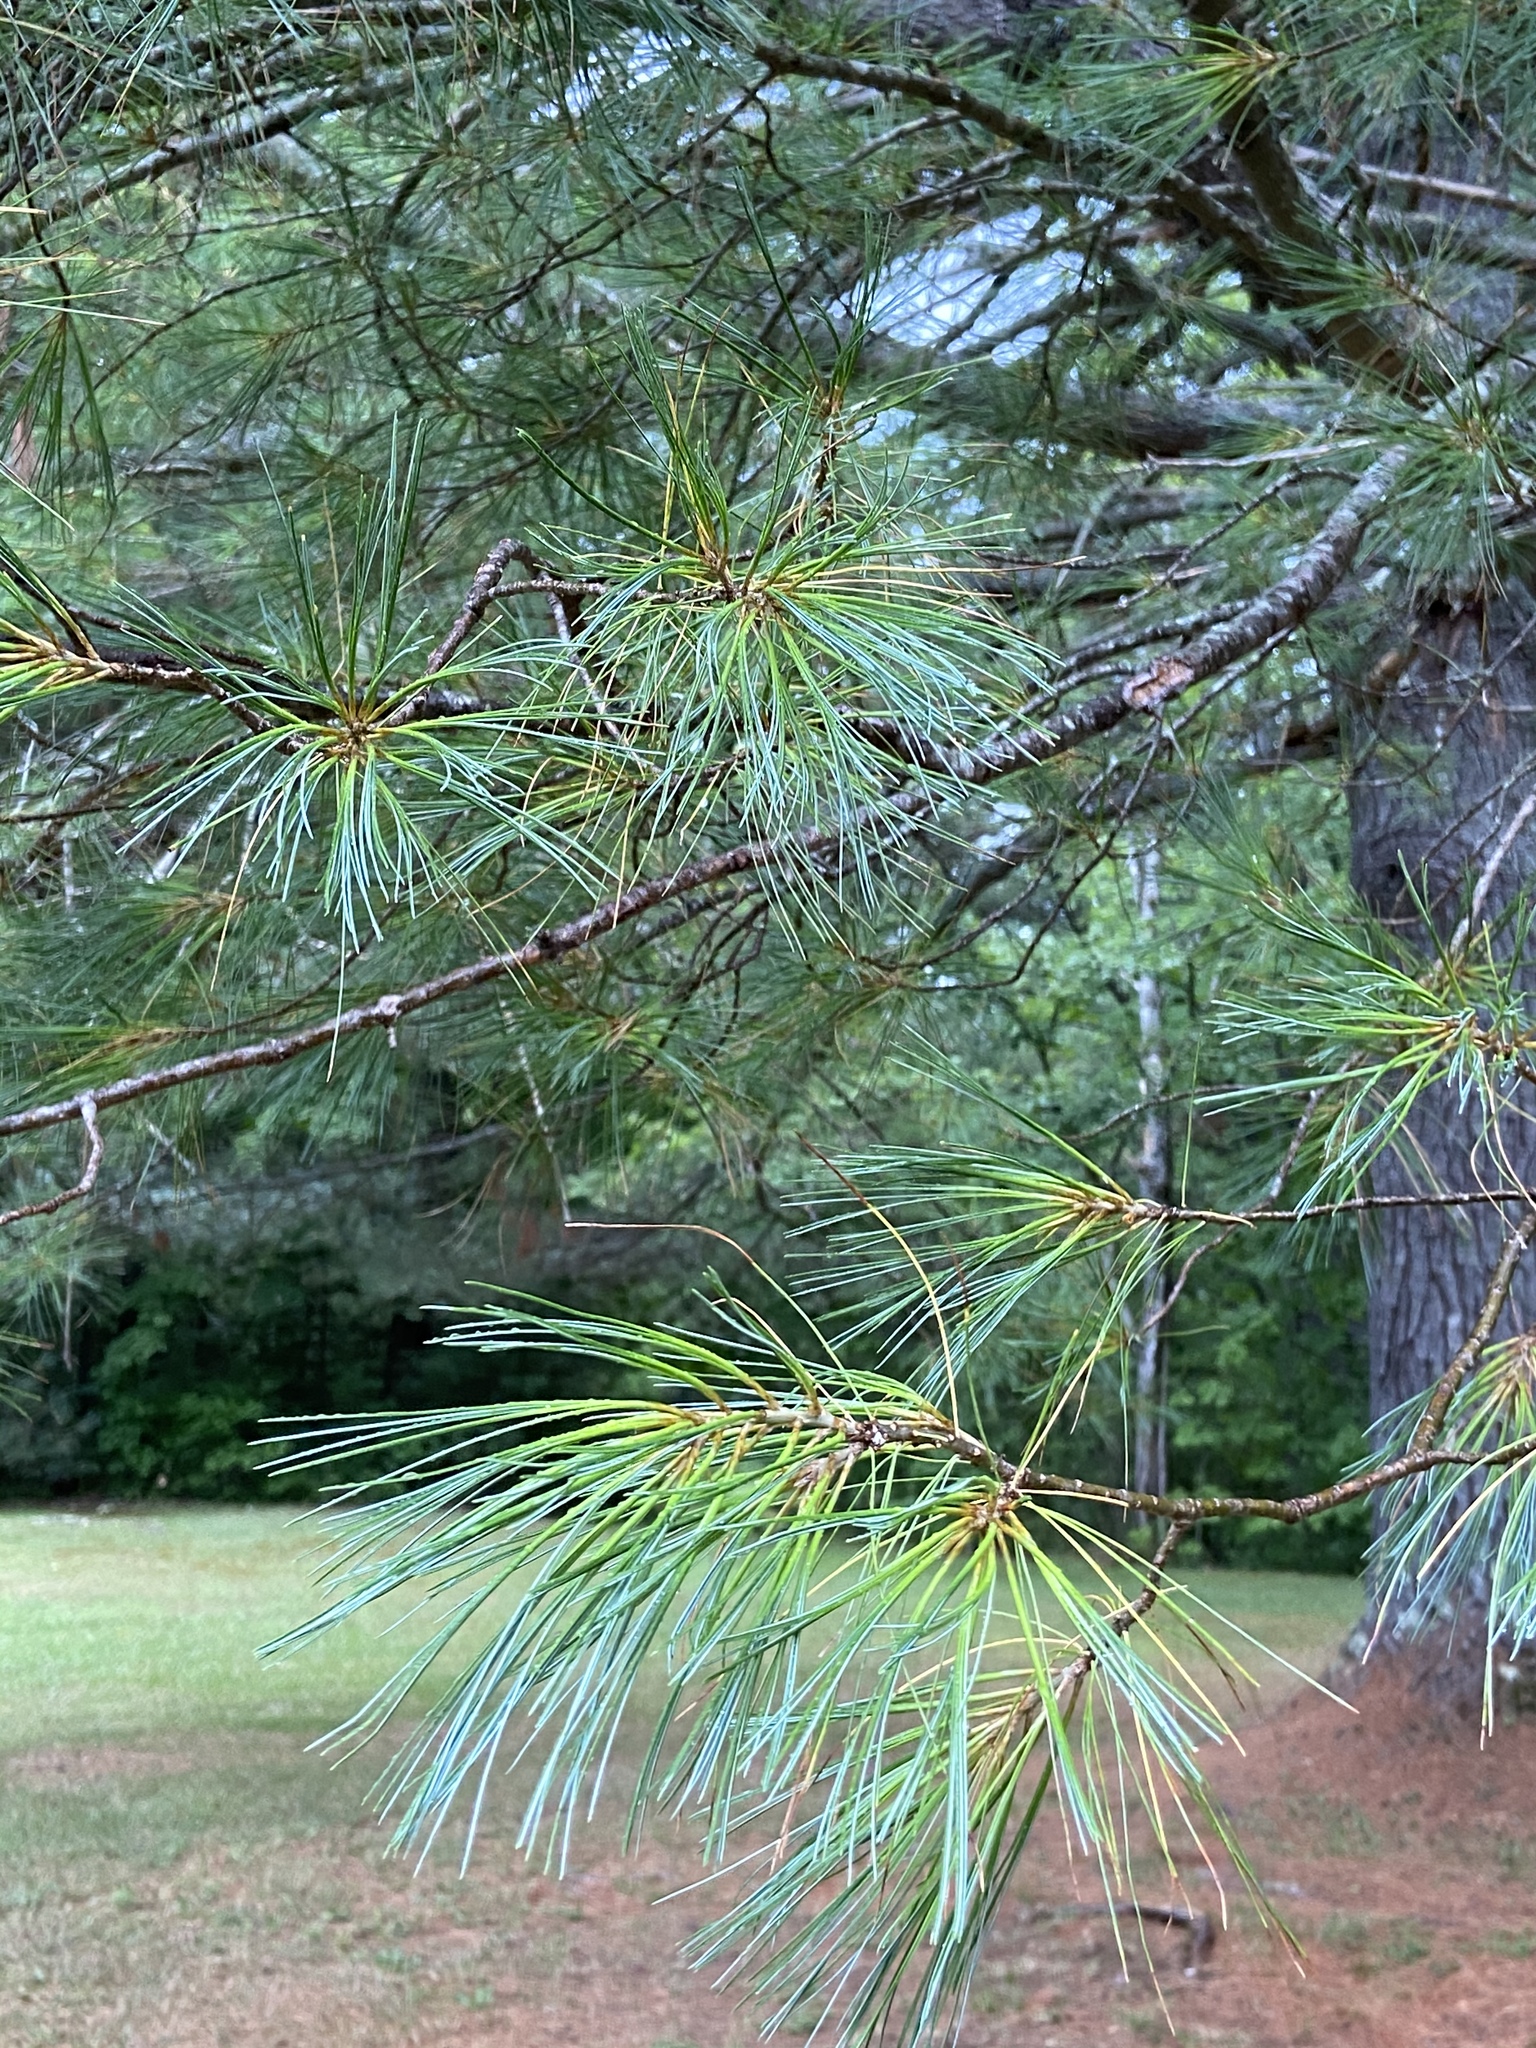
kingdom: Plantae
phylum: Tracheophyta
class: Pinopsida
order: Pinales
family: Pinaceae
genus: Pinus
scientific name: Pinus strobus
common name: Weymouth pine
